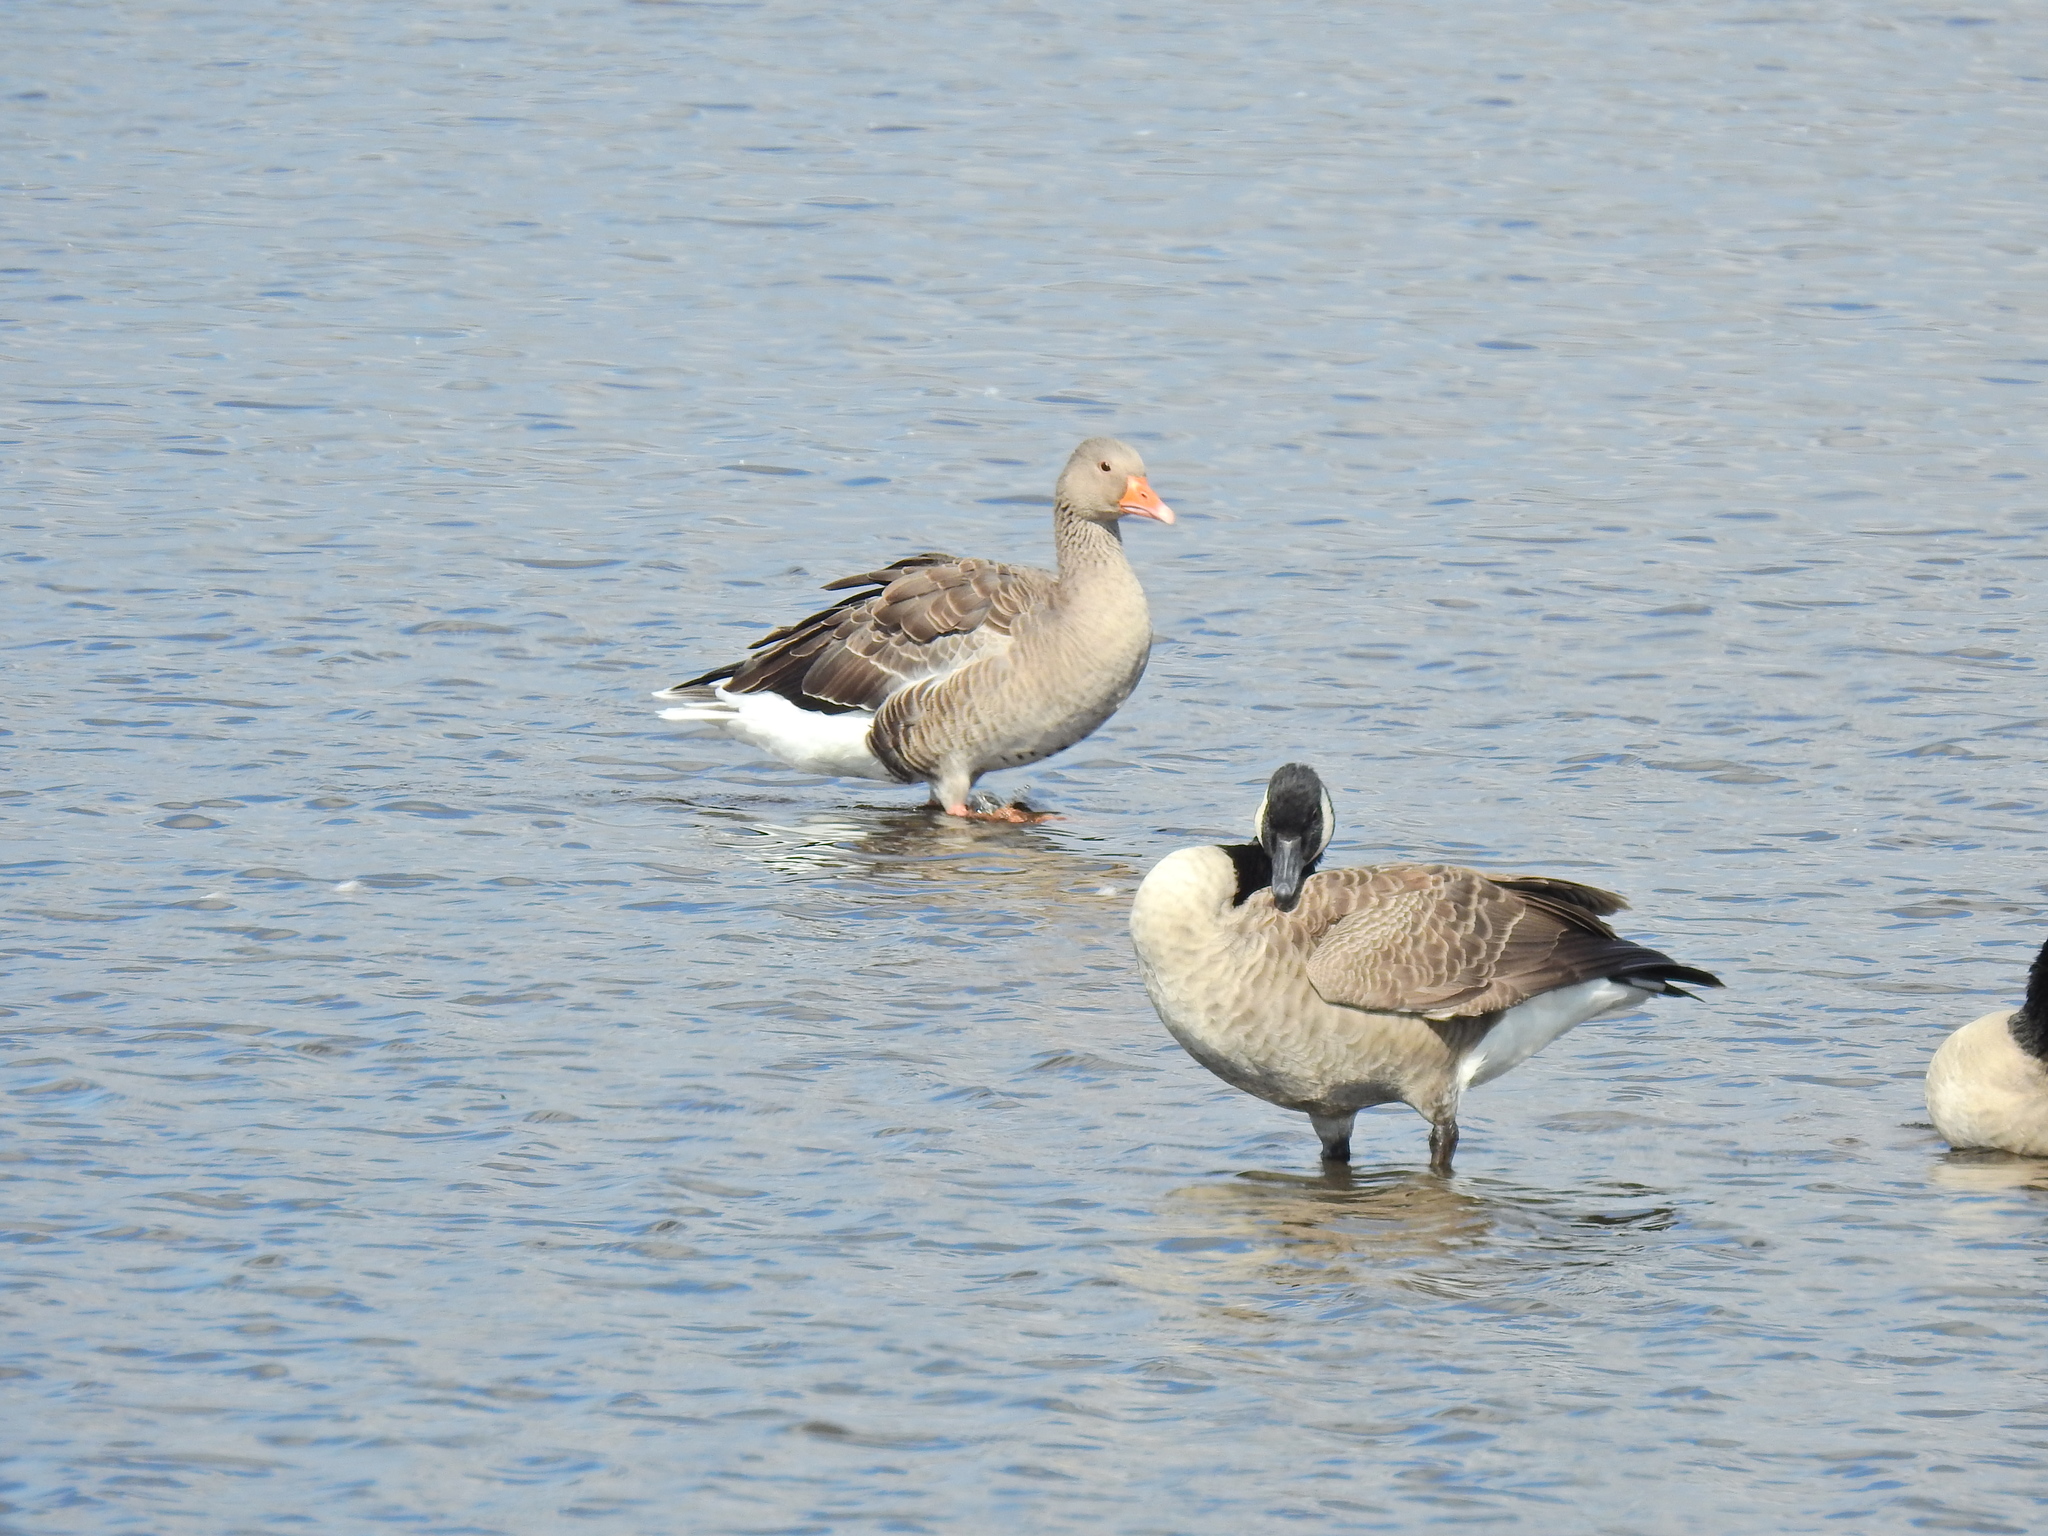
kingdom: Animalia
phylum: Chordata
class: Aves
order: Anseriformes
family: Anatidae
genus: Anser
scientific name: Anser anser
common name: Greylag goose
